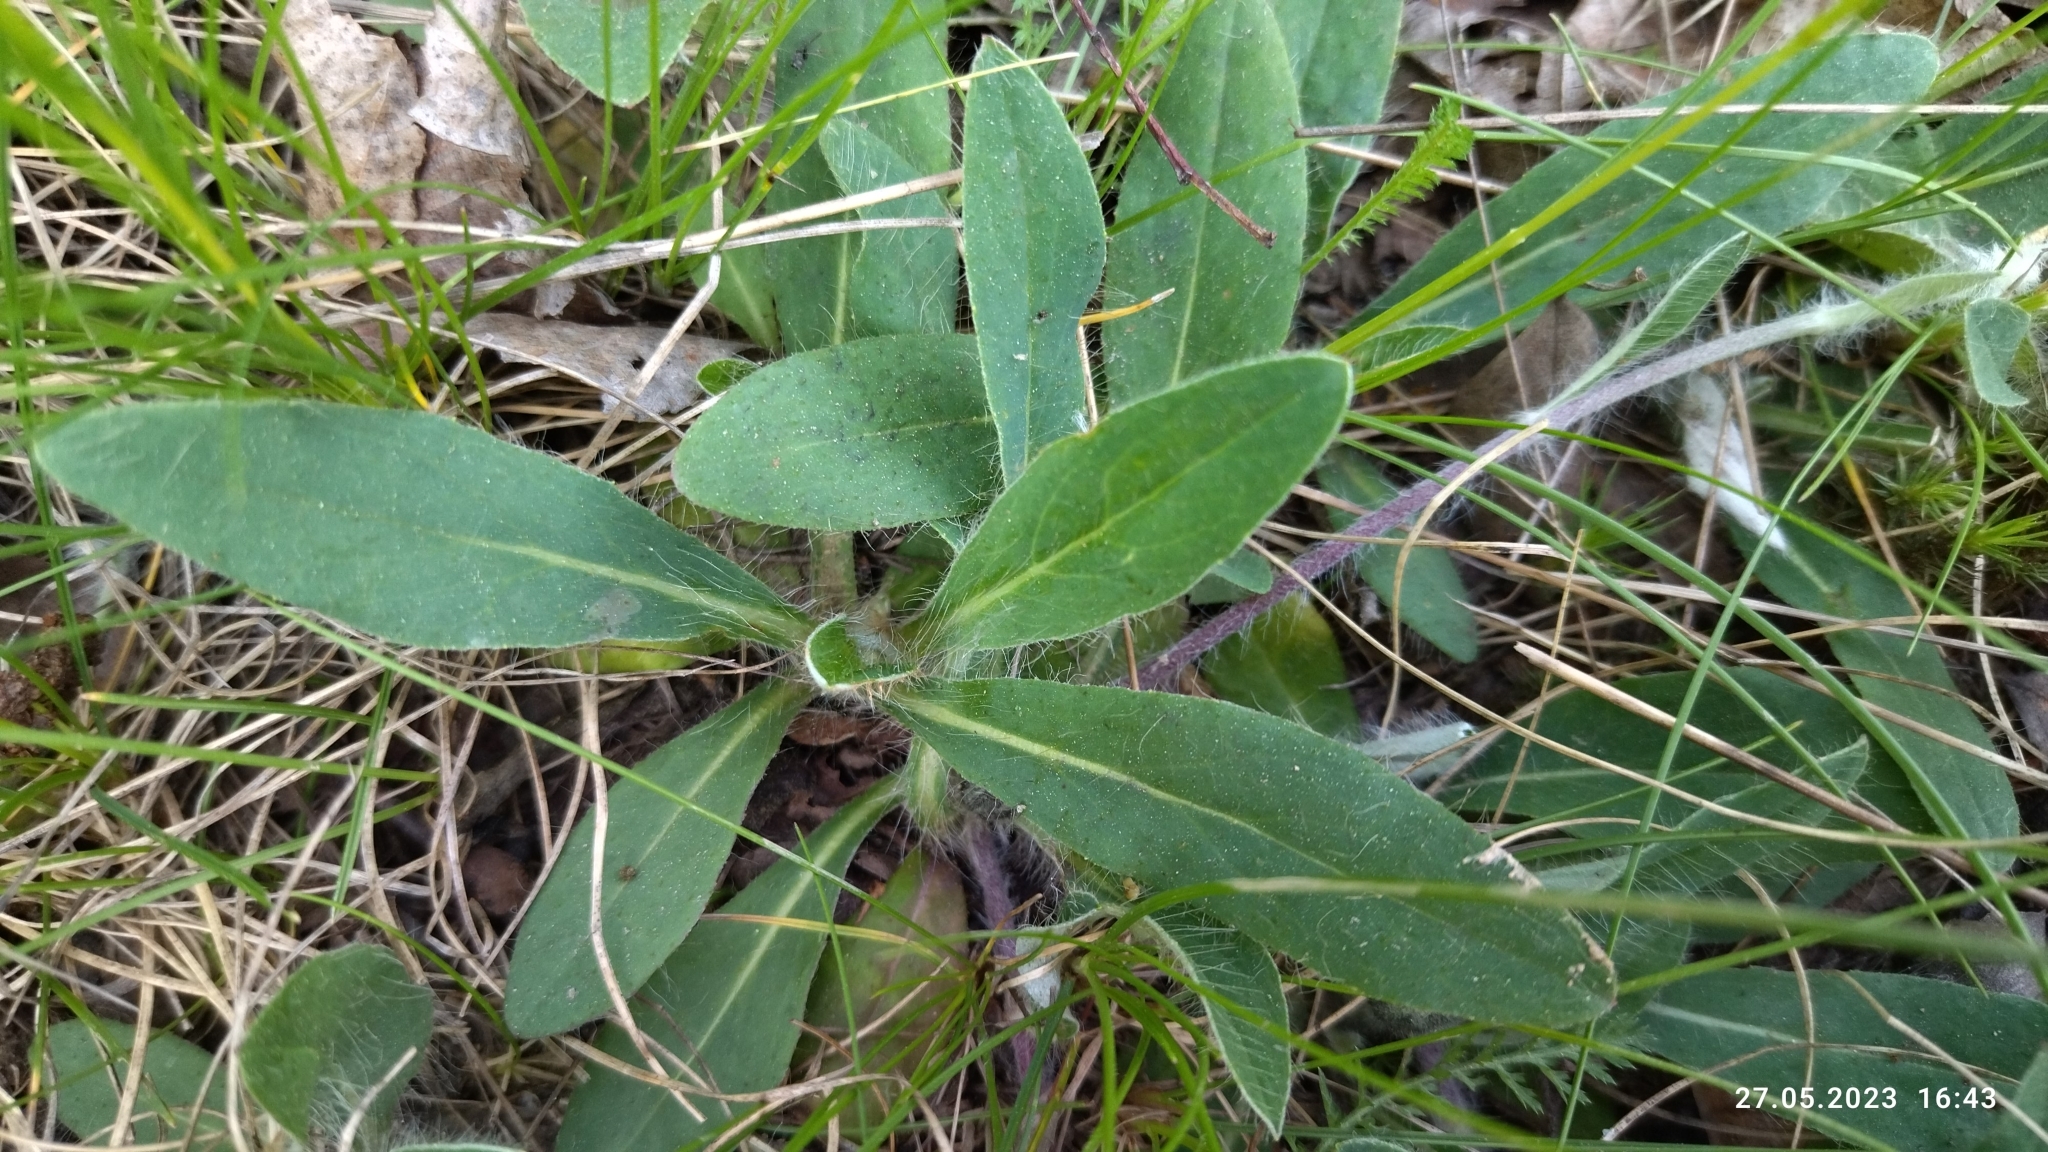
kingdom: Plantae
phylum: Tracheophyta
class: Magnoliopsida
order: Asterales
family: Asteraceae
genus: Pilosella
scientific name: Pilosella officinarum
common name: Mouse-ear hawkweed
